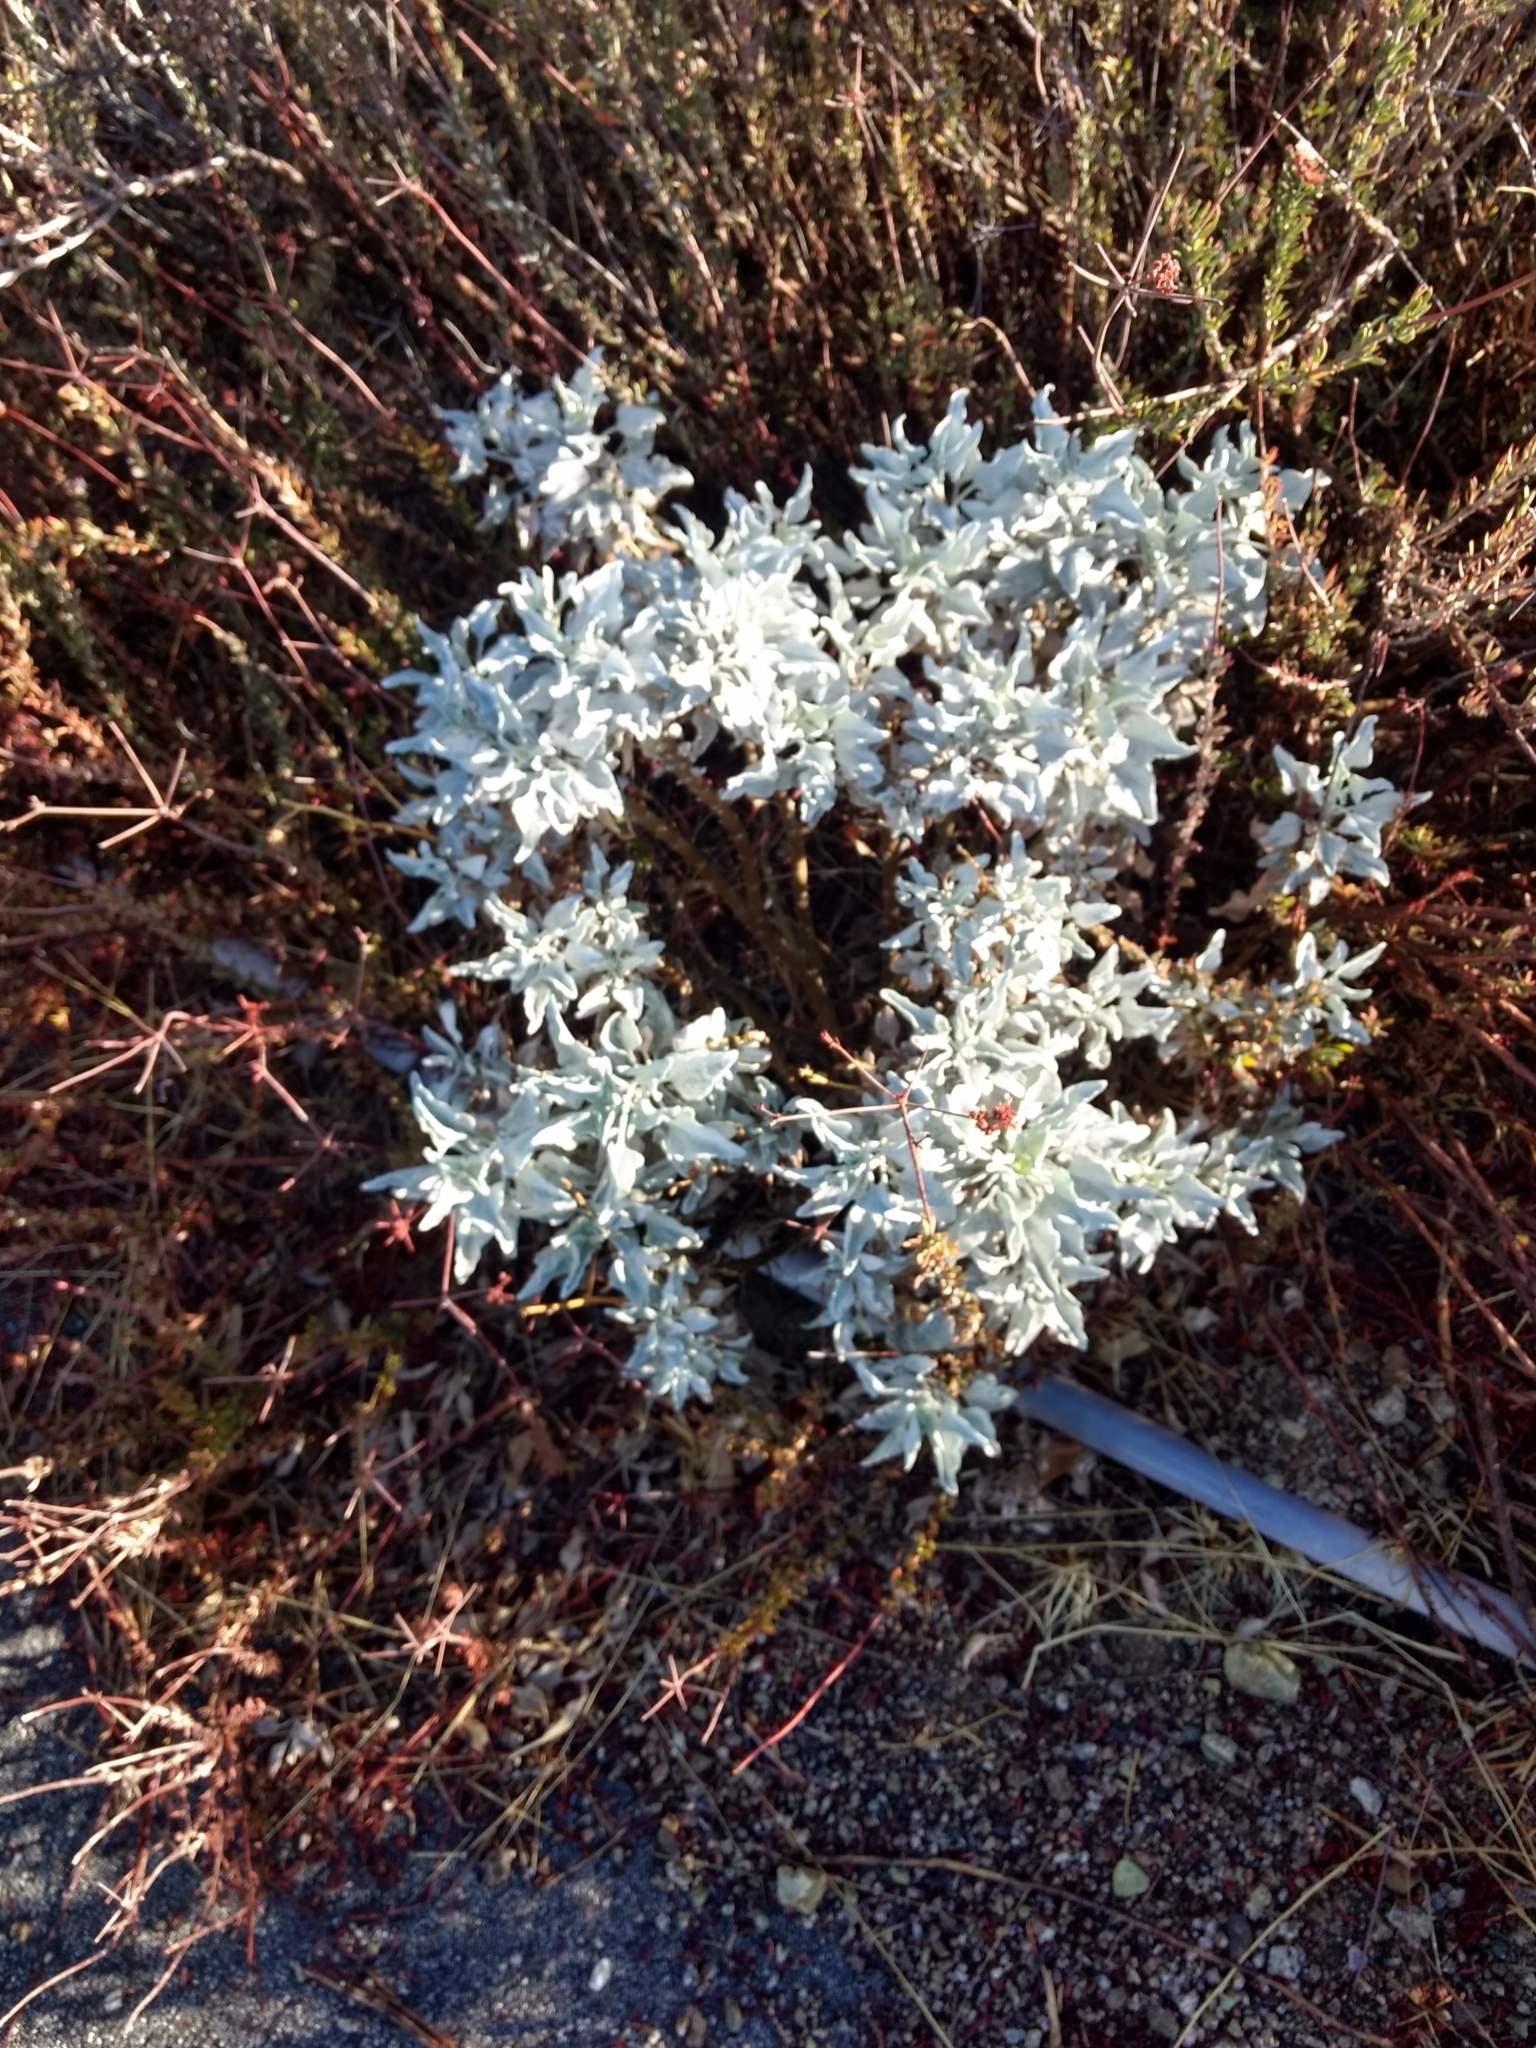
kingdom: Plantae
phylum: Tracheophyta
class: Magnoliopsida
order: Asterales
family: Asteraceae
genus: Encelia
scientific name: Encelia farinosa
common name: Brittlebush
